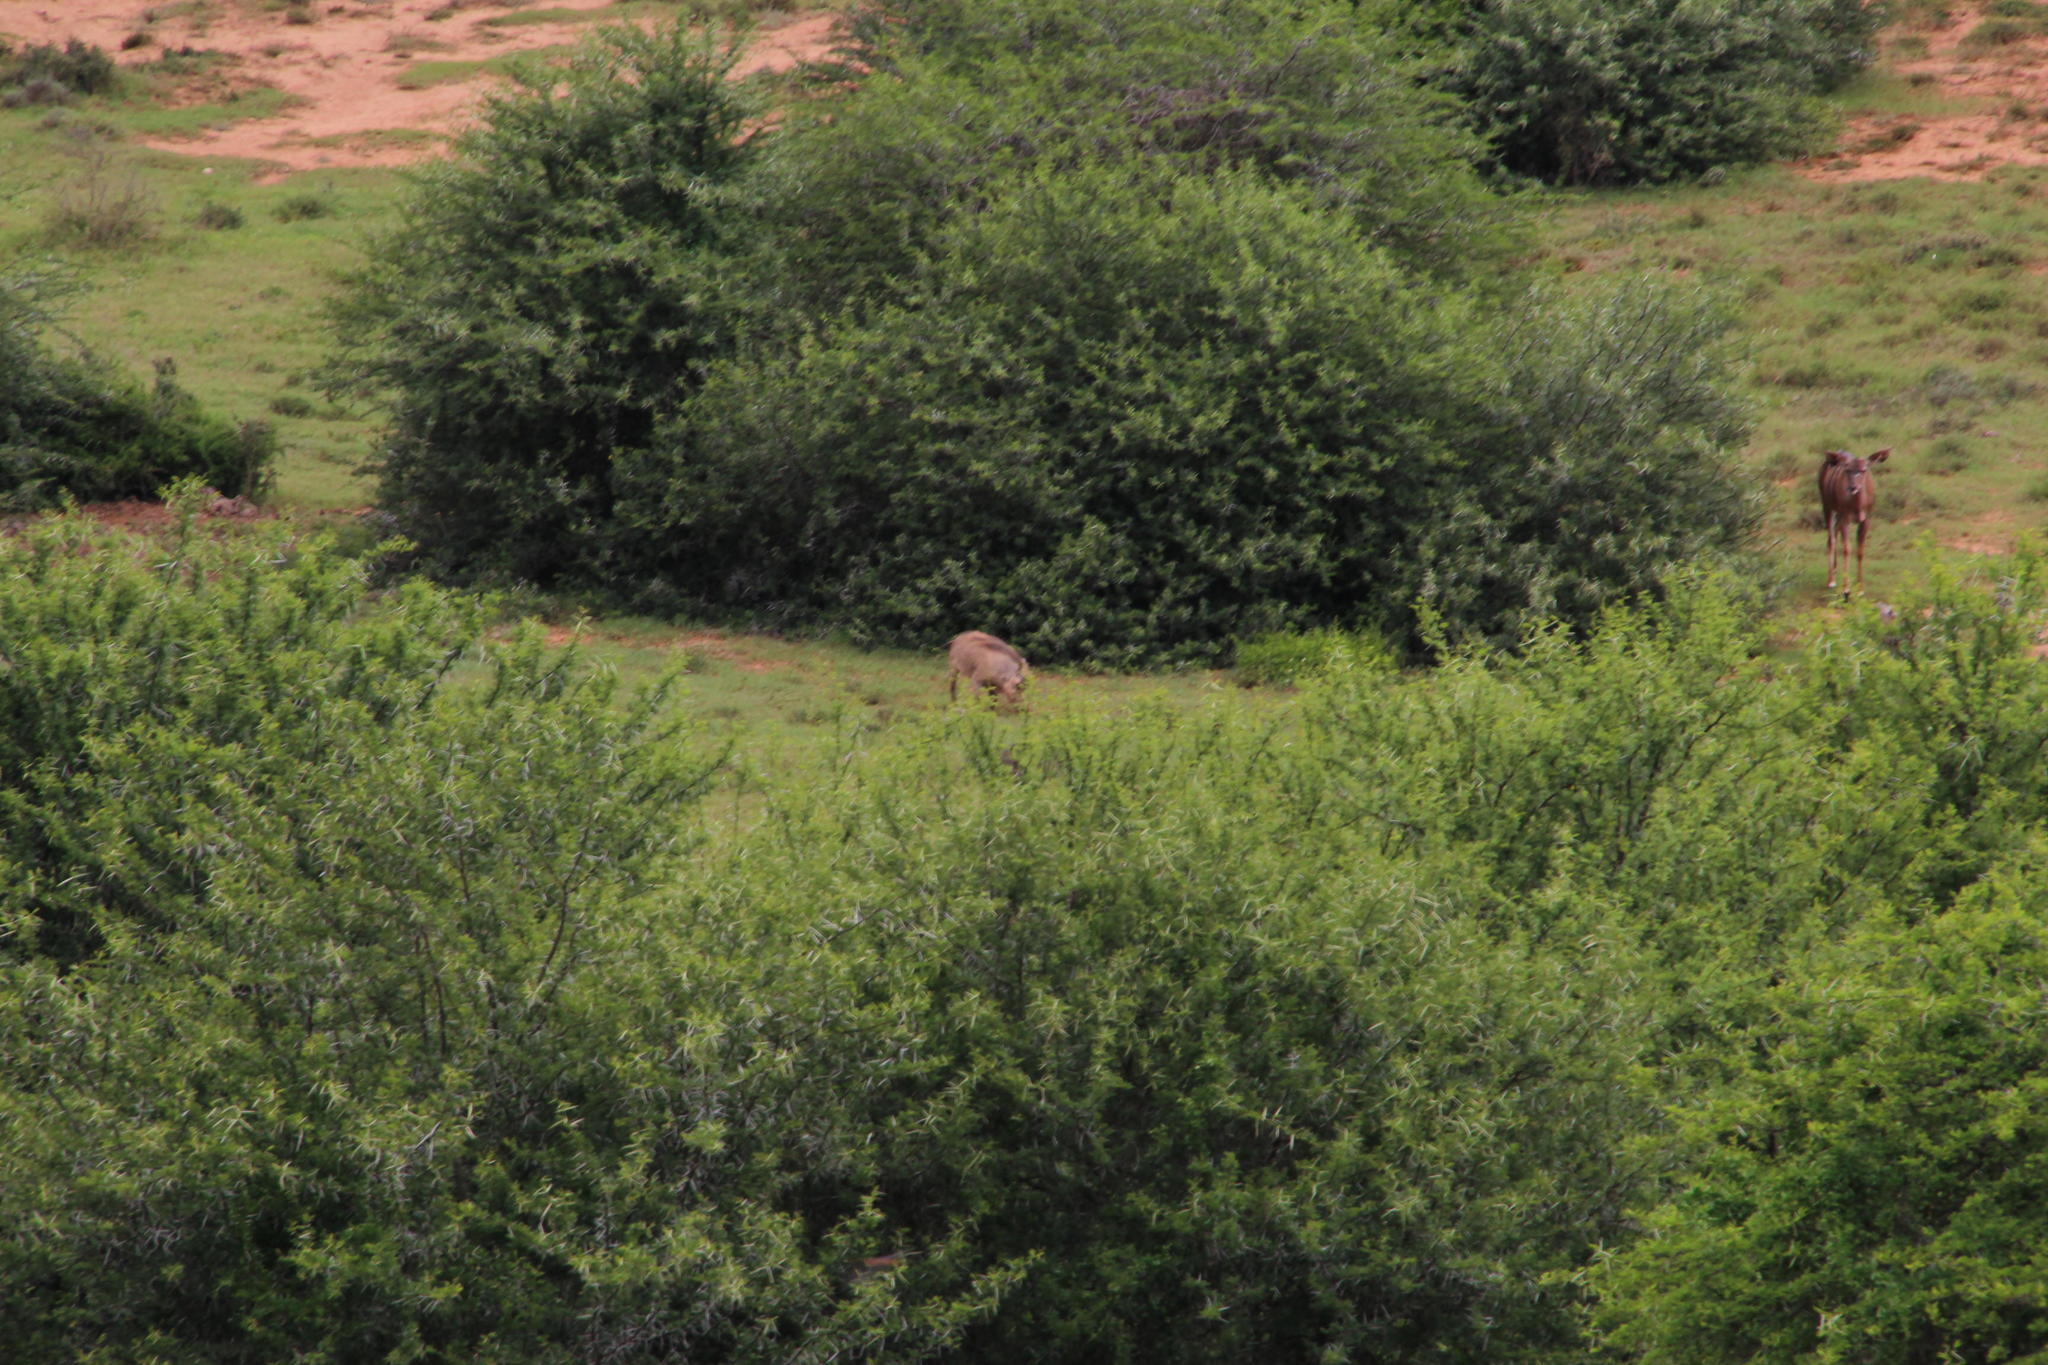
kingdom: Animalia
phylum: Chordata
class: Mammalia
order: Artiodactyla
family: Suidae
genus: Phacochoerus
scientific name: Phacochoerus africanus
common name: Common warthog
